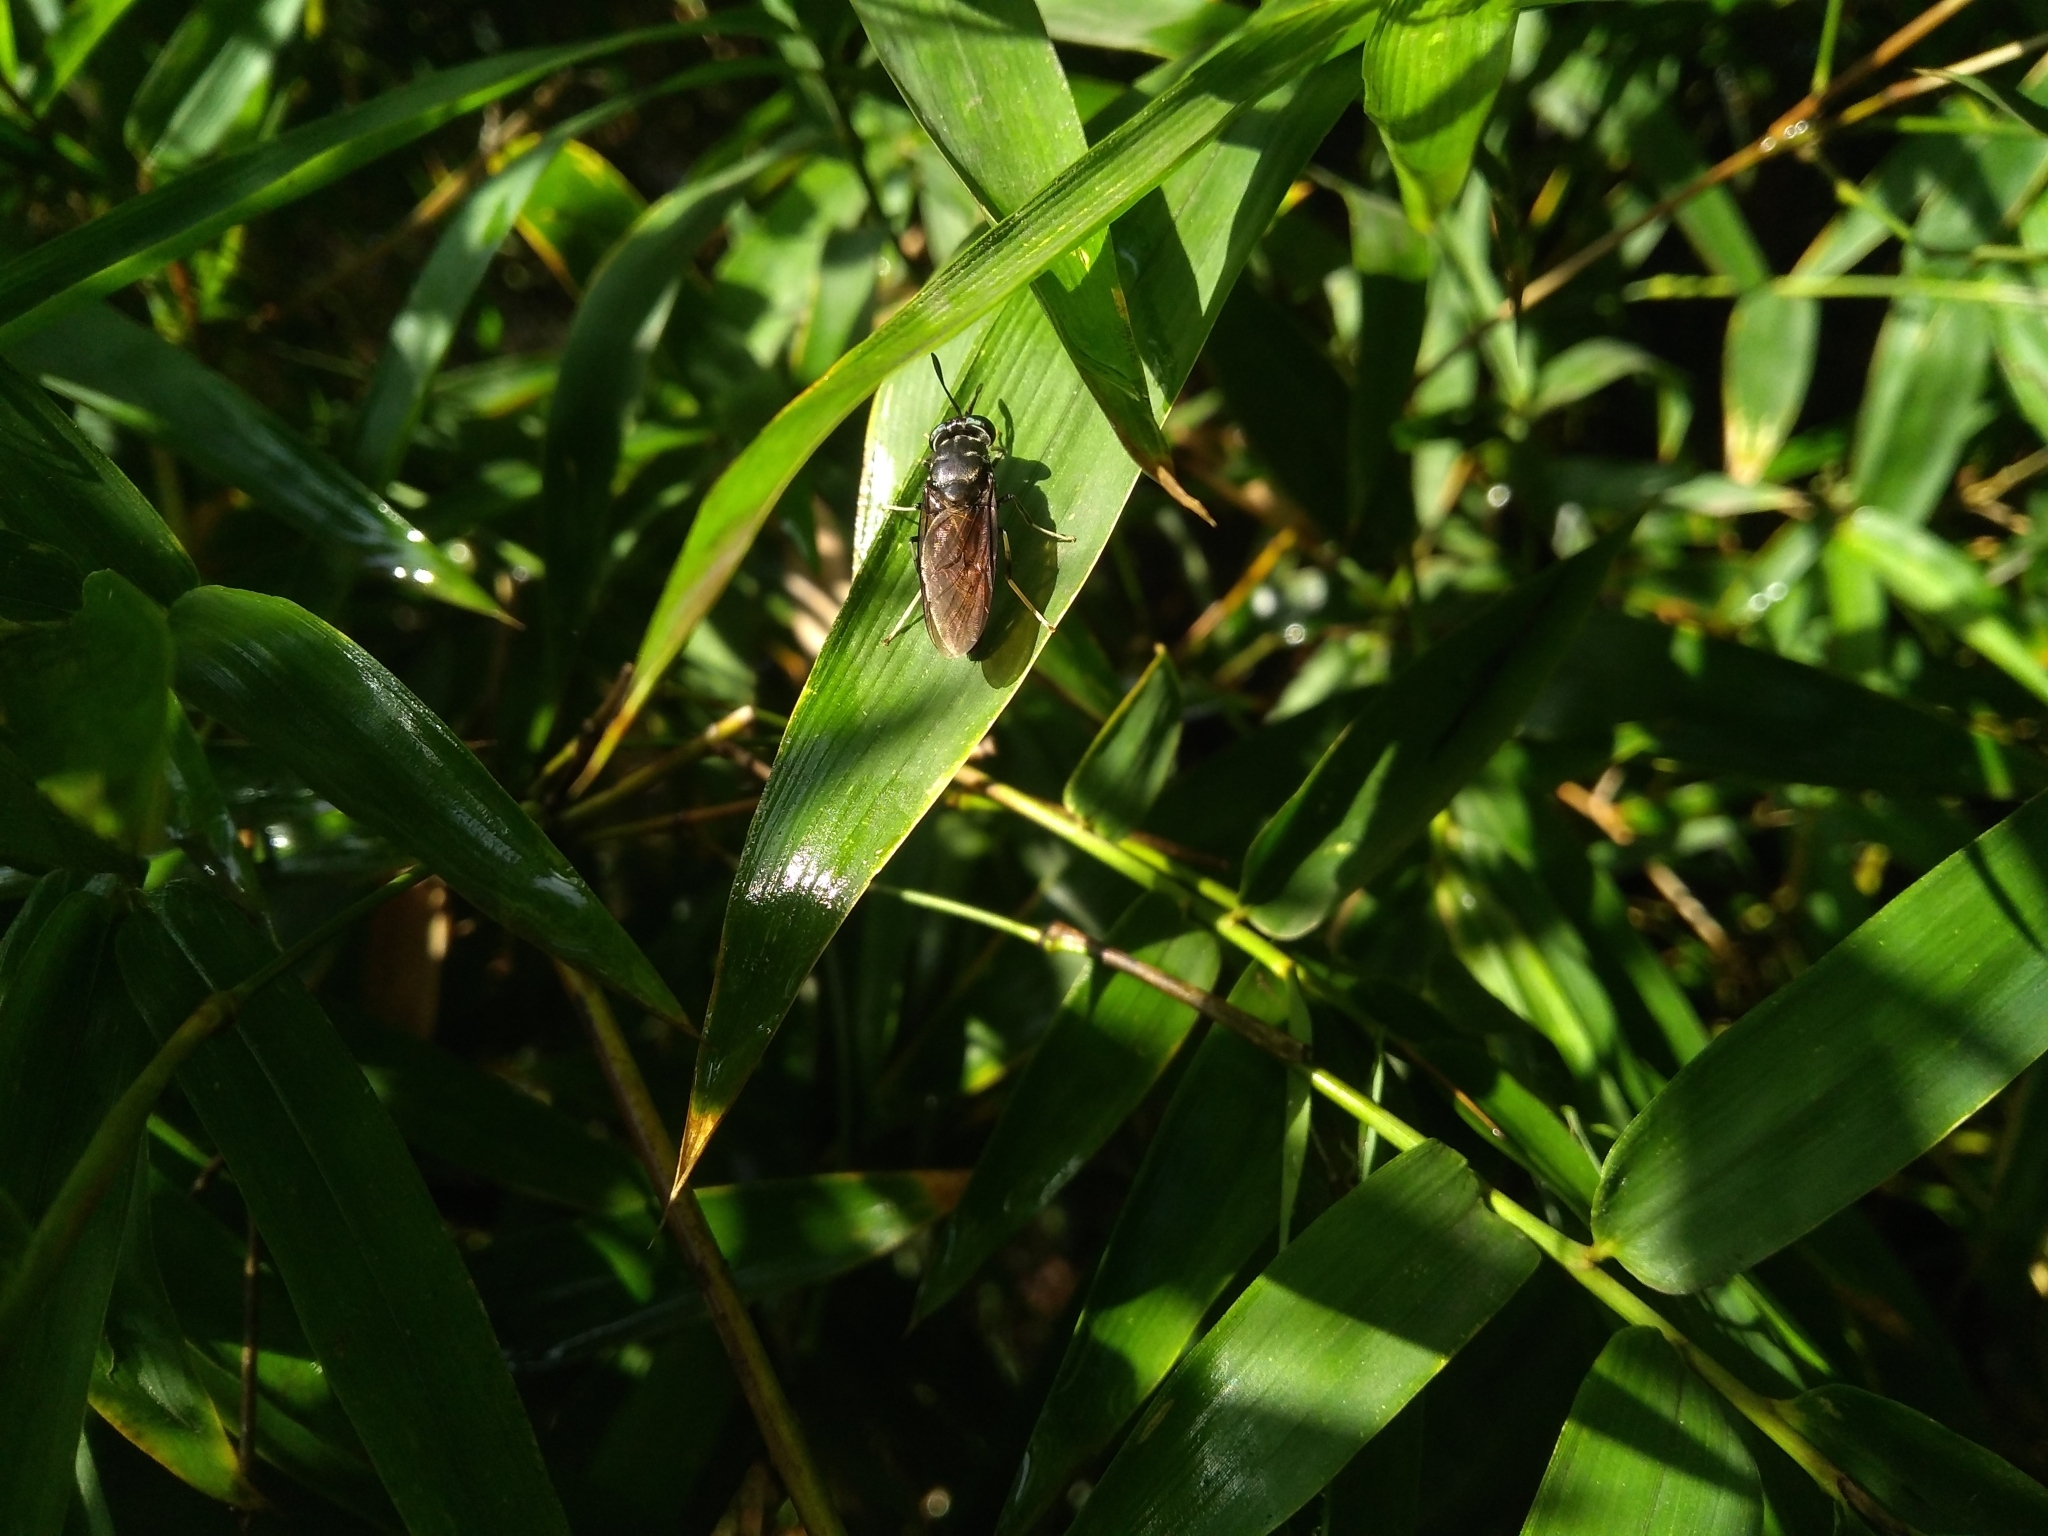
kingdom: Animalia
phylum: Arthropoda
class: Insecta
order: Diptera
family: Stratiomyidae
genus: Hermetia
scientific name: Hermetia illucens
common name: Black soldier fly
